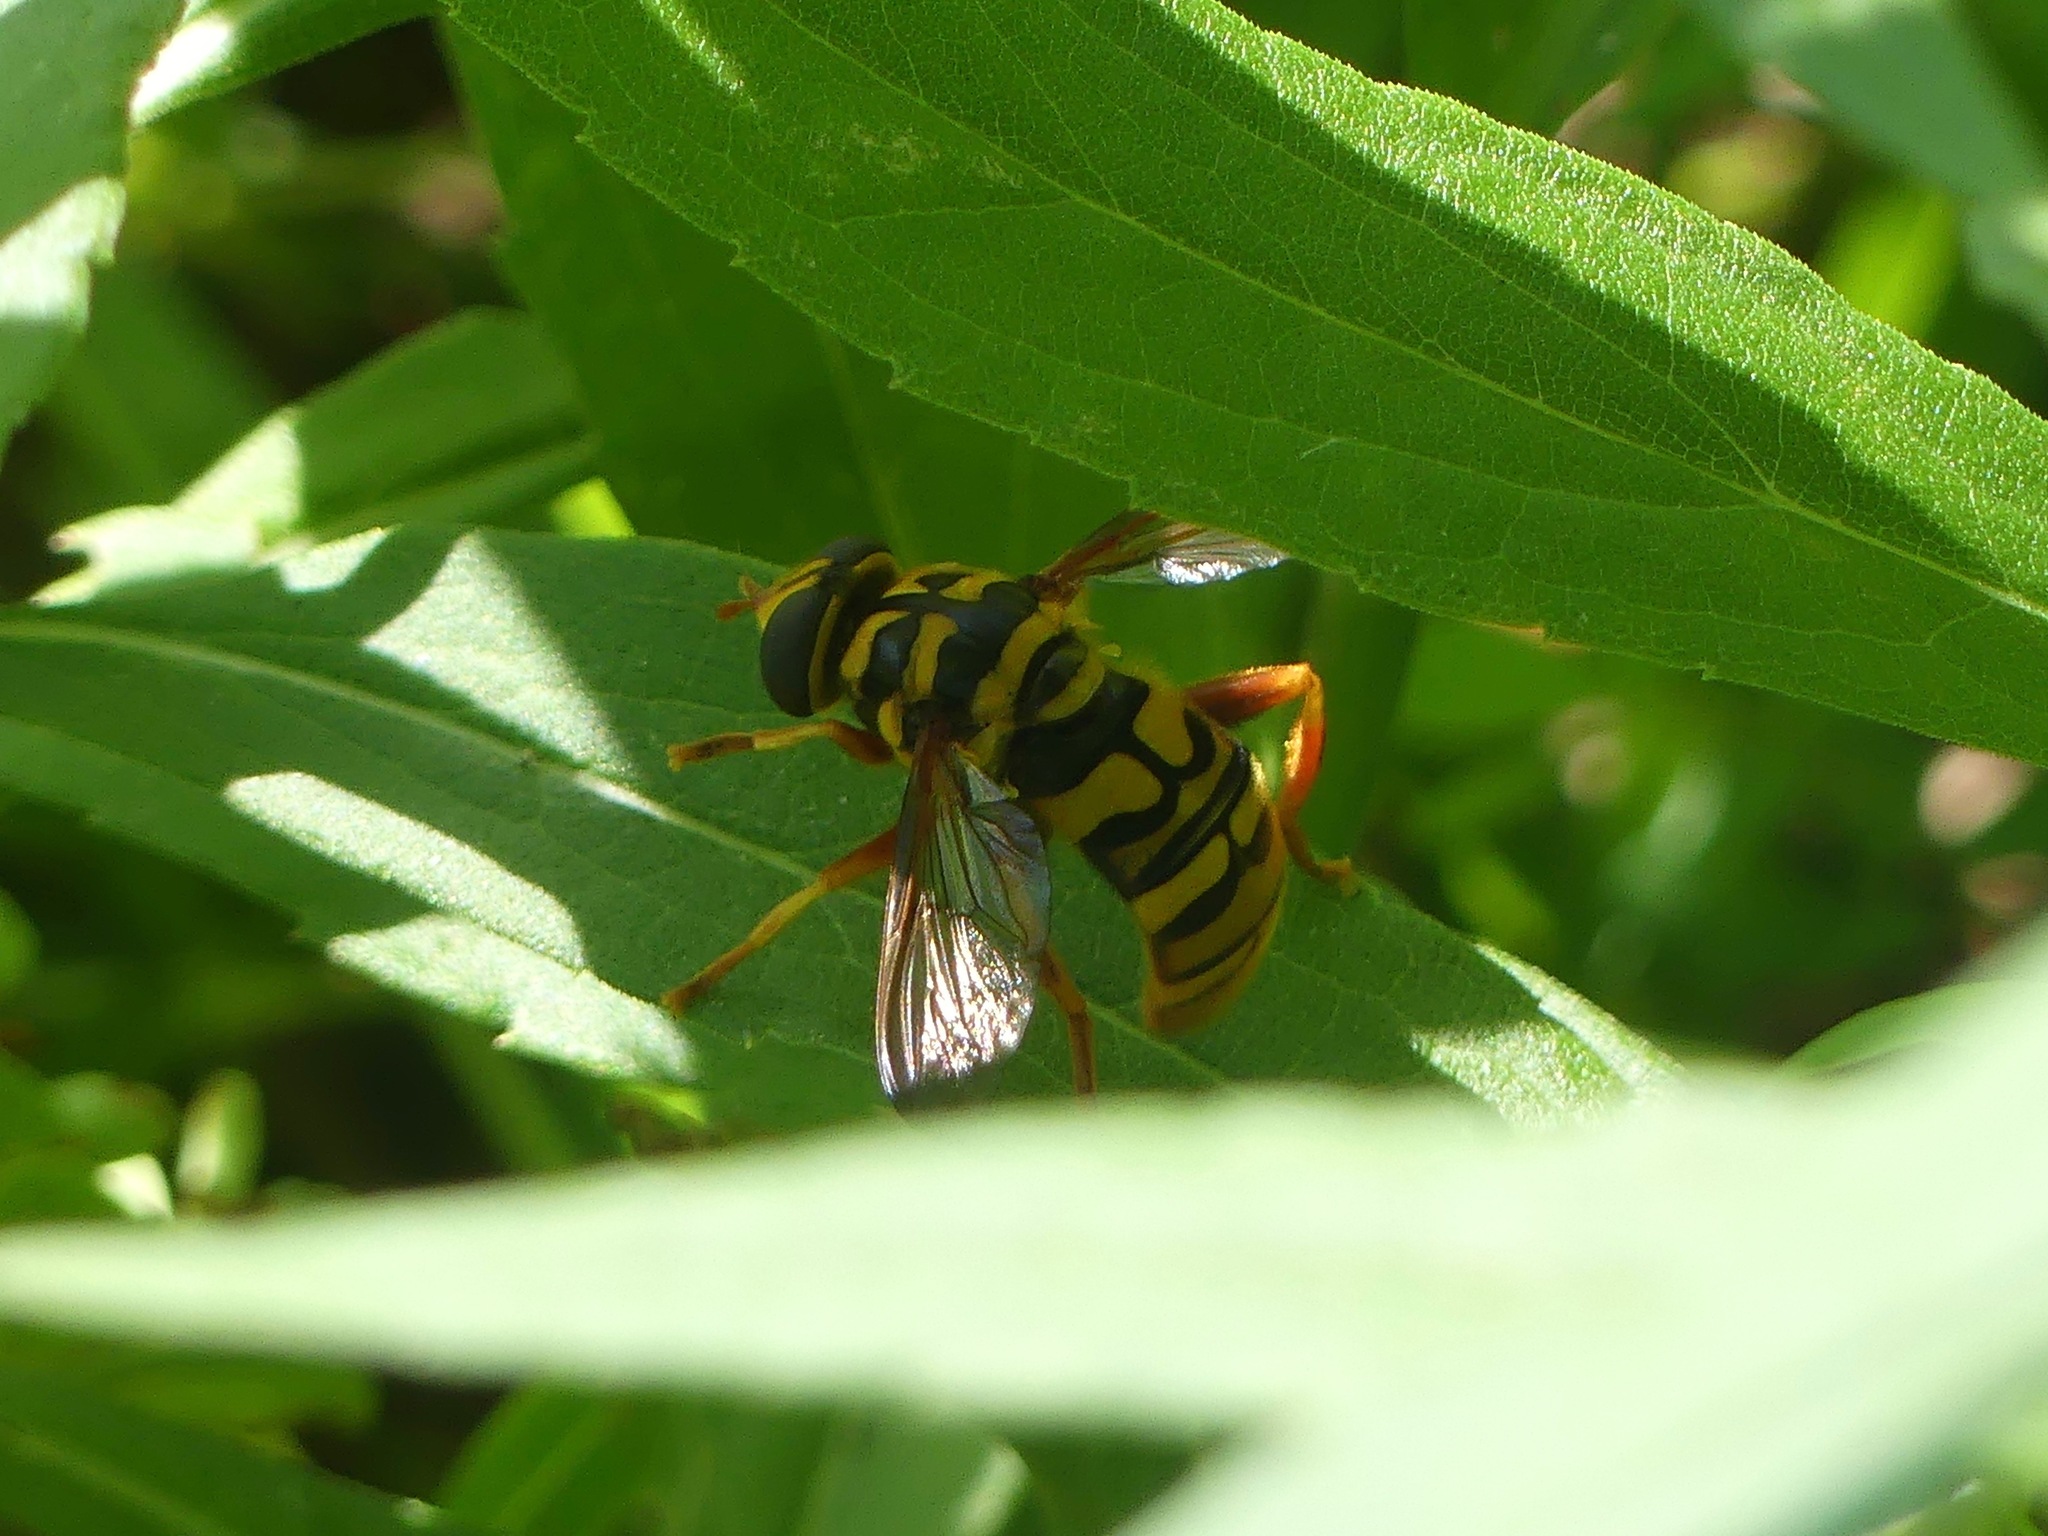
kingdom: Animalia
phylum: Arthropoda
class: Insecta
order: Diptera
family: Syrphidae
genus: Milesia
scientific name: Milesia virginiensis
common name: Virginia giant
